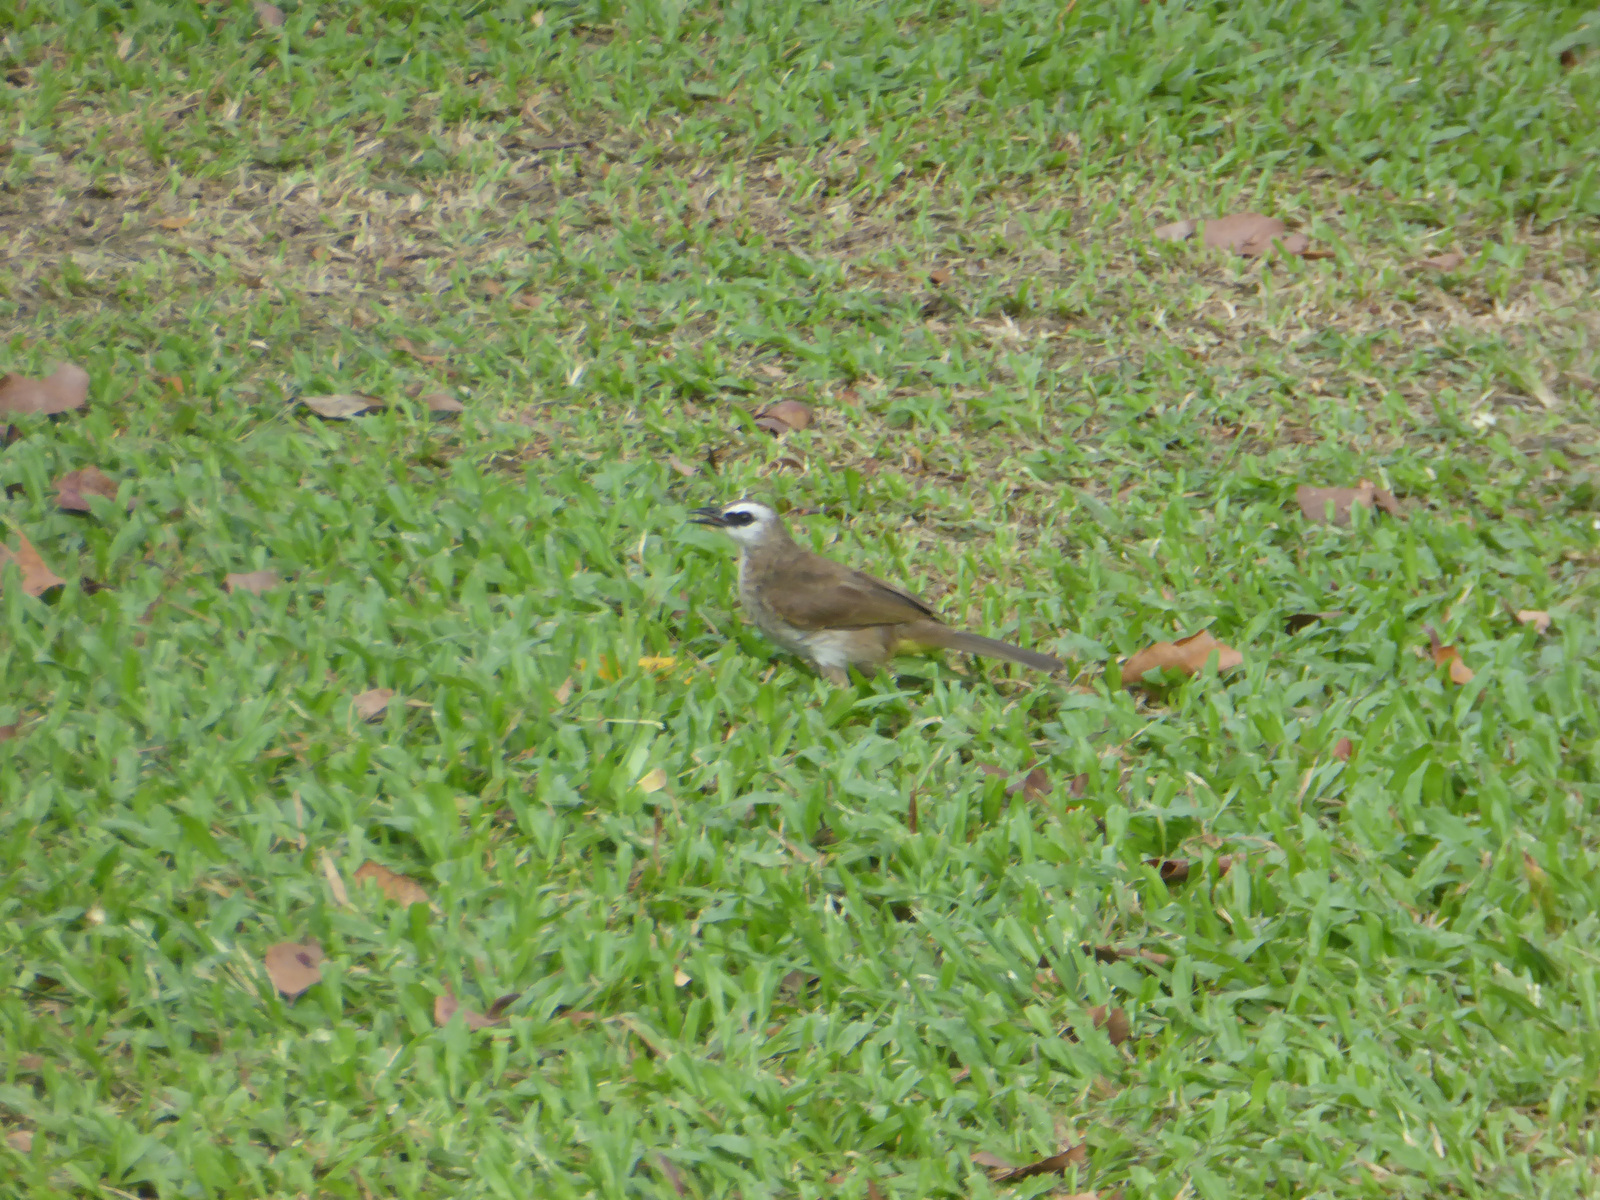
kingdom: Animalia
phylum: Chordata
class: Aves
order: Passeriformes
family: Pycnonotidae
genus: Pycnonotus
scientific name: Pycnonotus goiavier
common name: Yellow-vented bulbul
